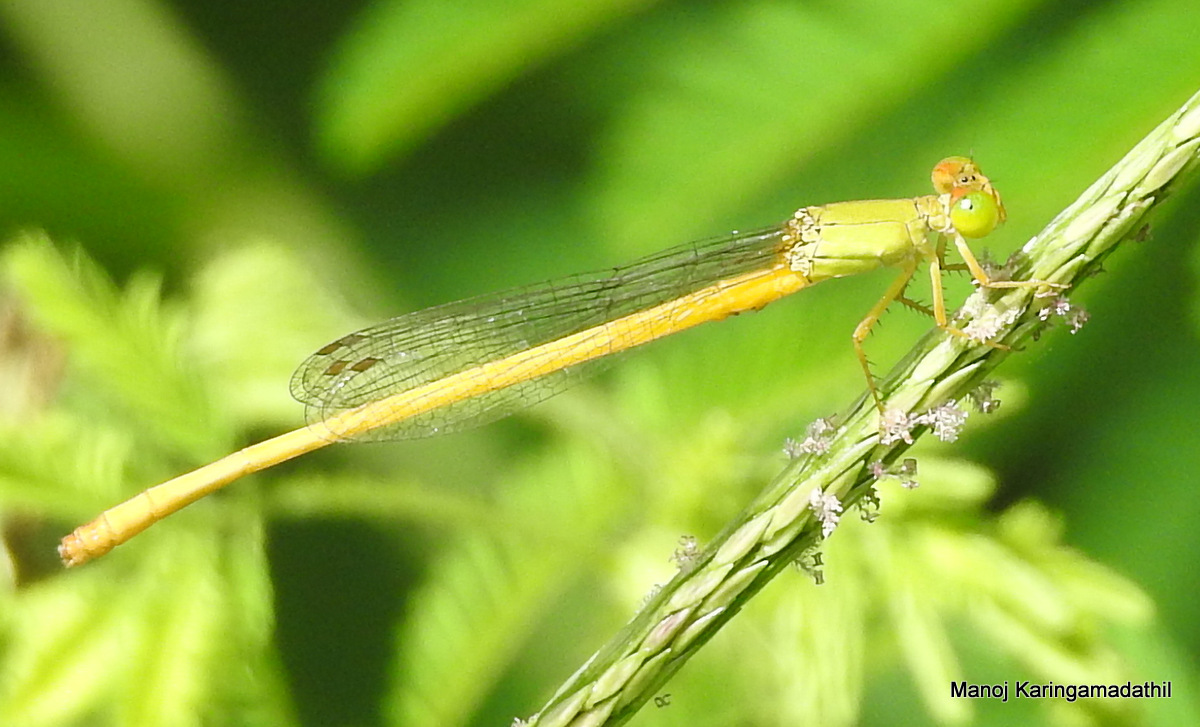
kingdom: Animalia
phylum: Arthropoda
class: Insecta
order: Odonata
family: Coenagrionidae
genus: Ceriagrion
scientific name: Ceriagrion coromandelianum
